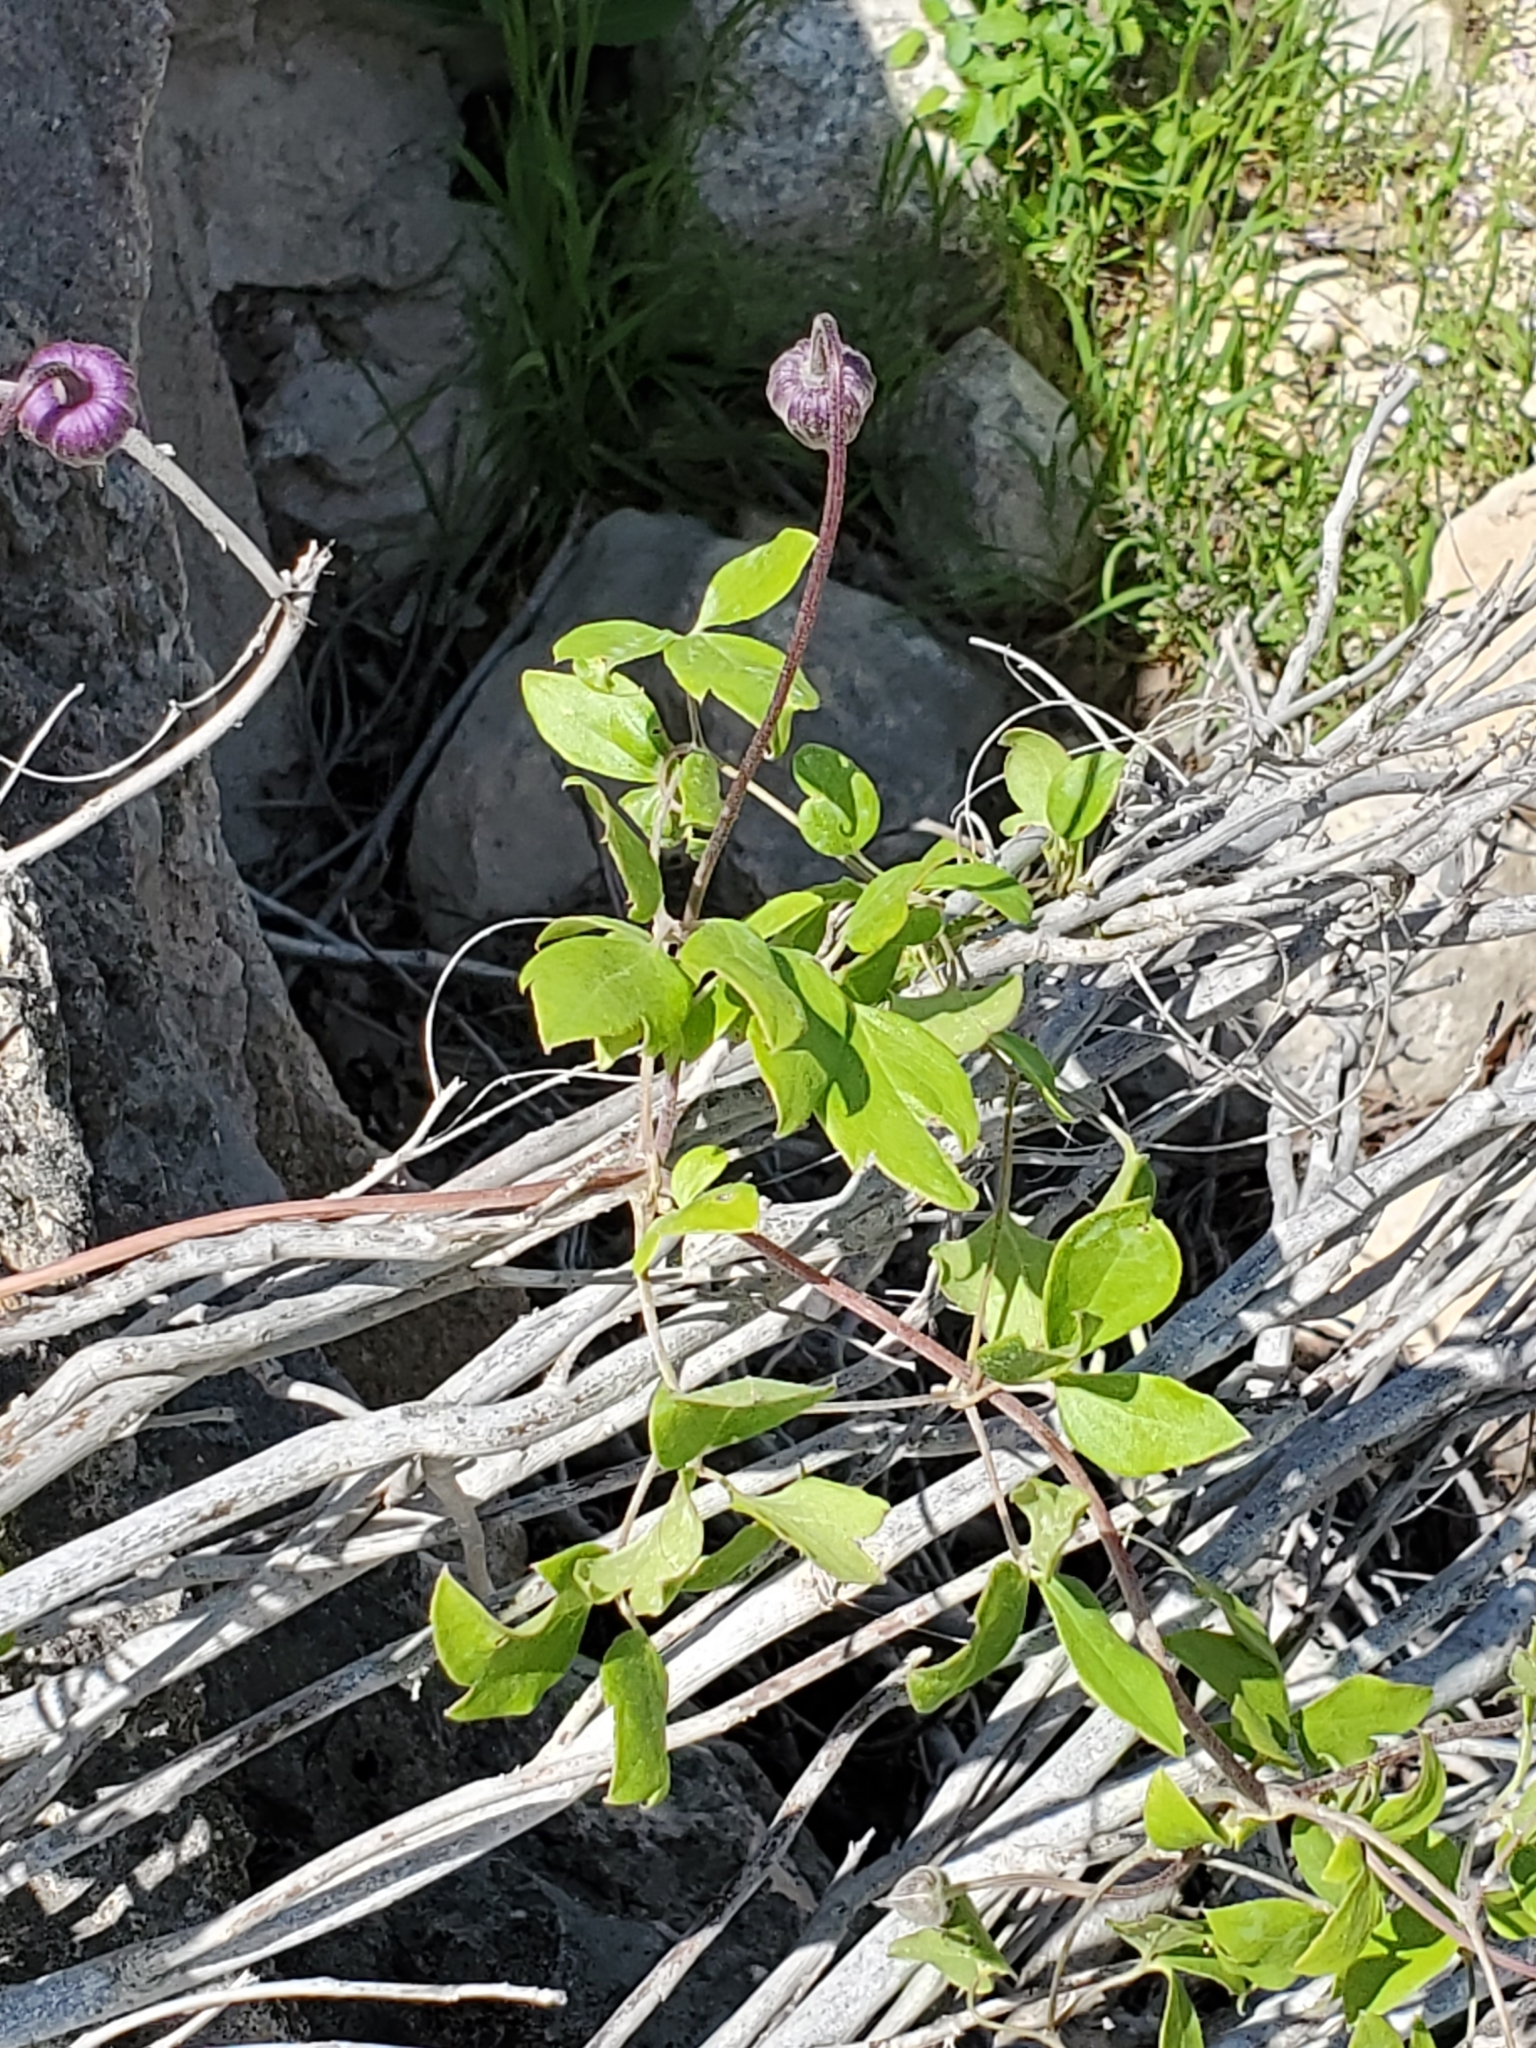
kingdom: Plantae
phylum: Tracheophyta
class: Magnoliopsida
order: Ranunculales
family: Ranunculaceae
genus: Clematis
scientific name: Clematis pitcheri
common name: Bellflower clematis
